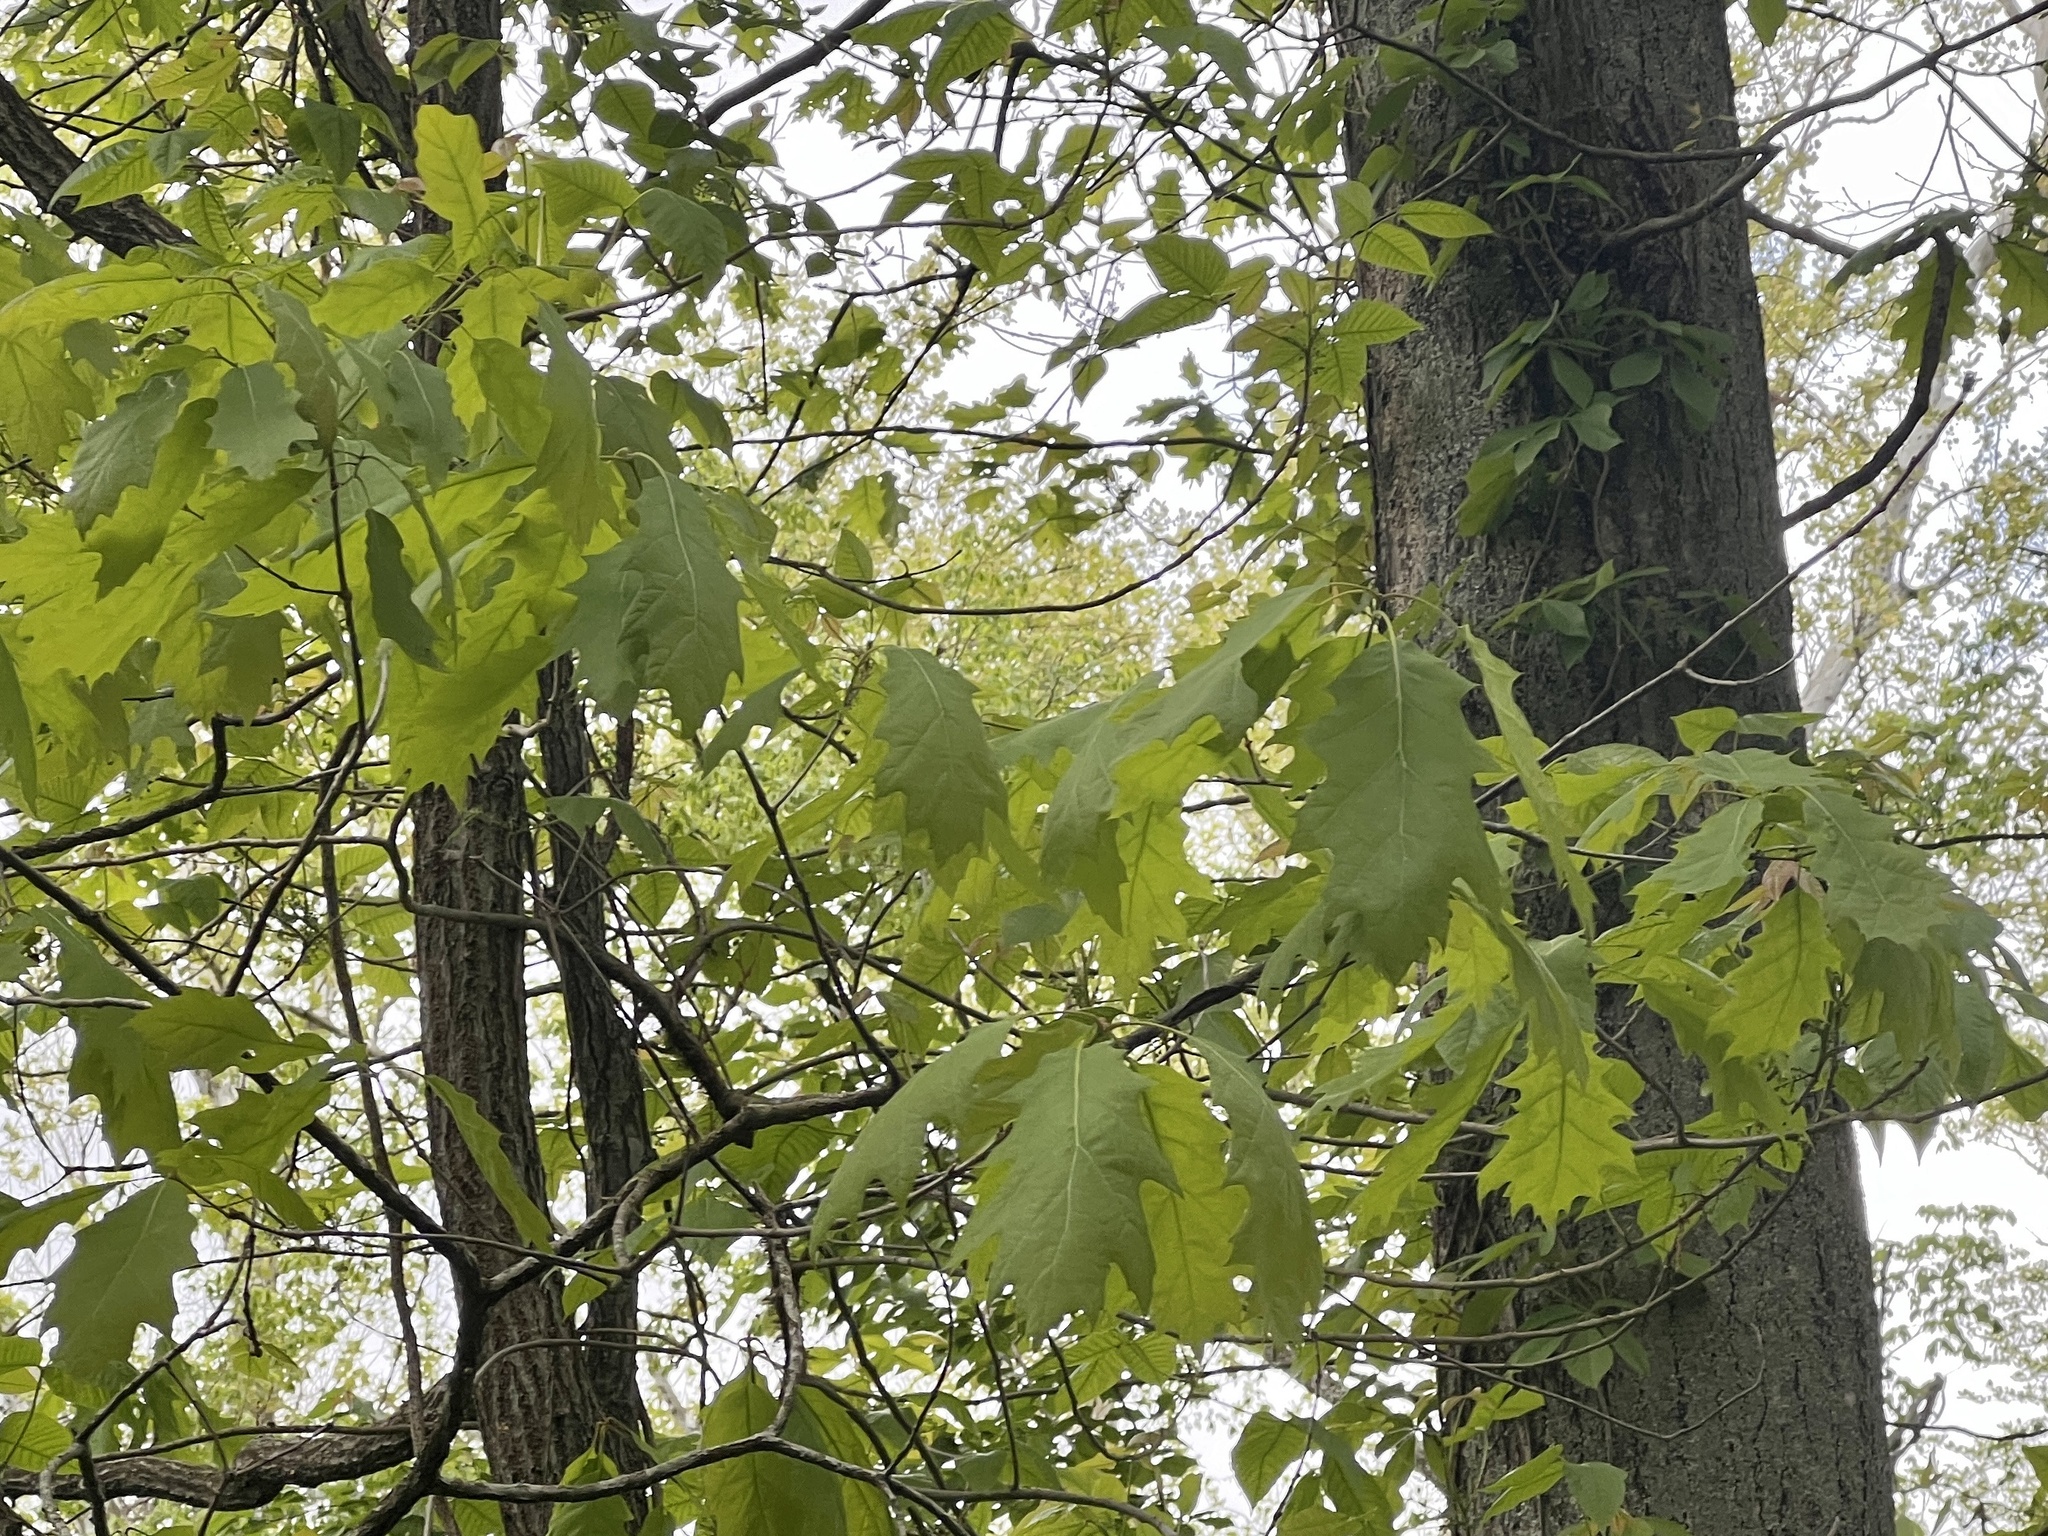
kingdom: Plantae
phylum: Tracheophyta
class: Magnoliopsida
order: Fagales
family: Fagaceae
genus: Quercus
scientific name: Quercus rubra
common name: Red oak
